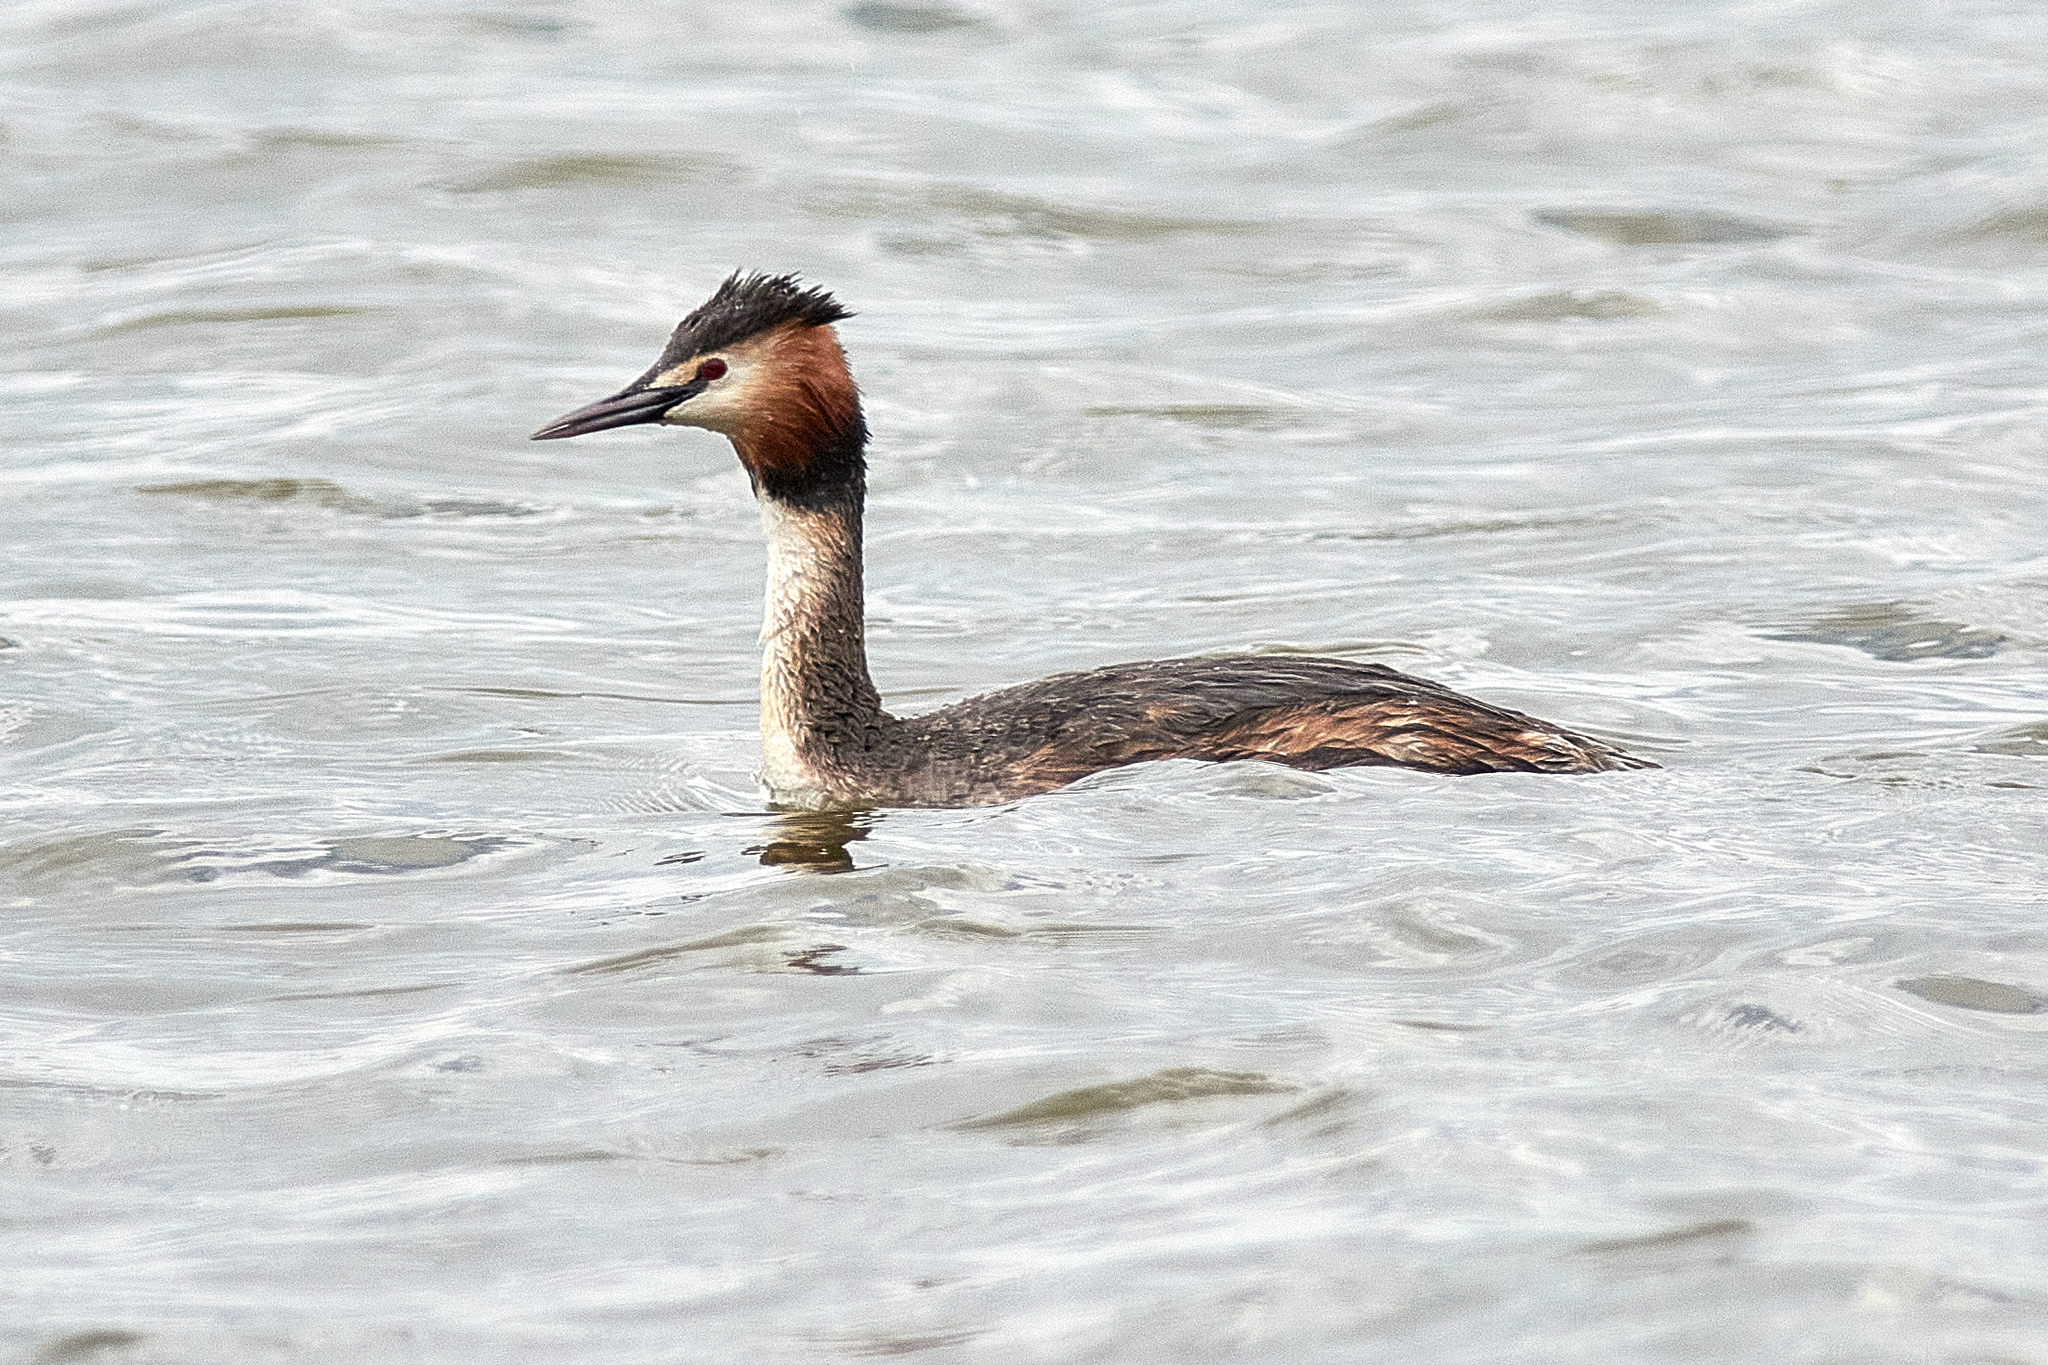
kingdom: Animalia
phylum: Chordata
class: Aves
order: Podicipediformes
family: Podicipedidae
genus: Podiceps
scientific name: Podiceps cristatus
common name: Great crested grebe
